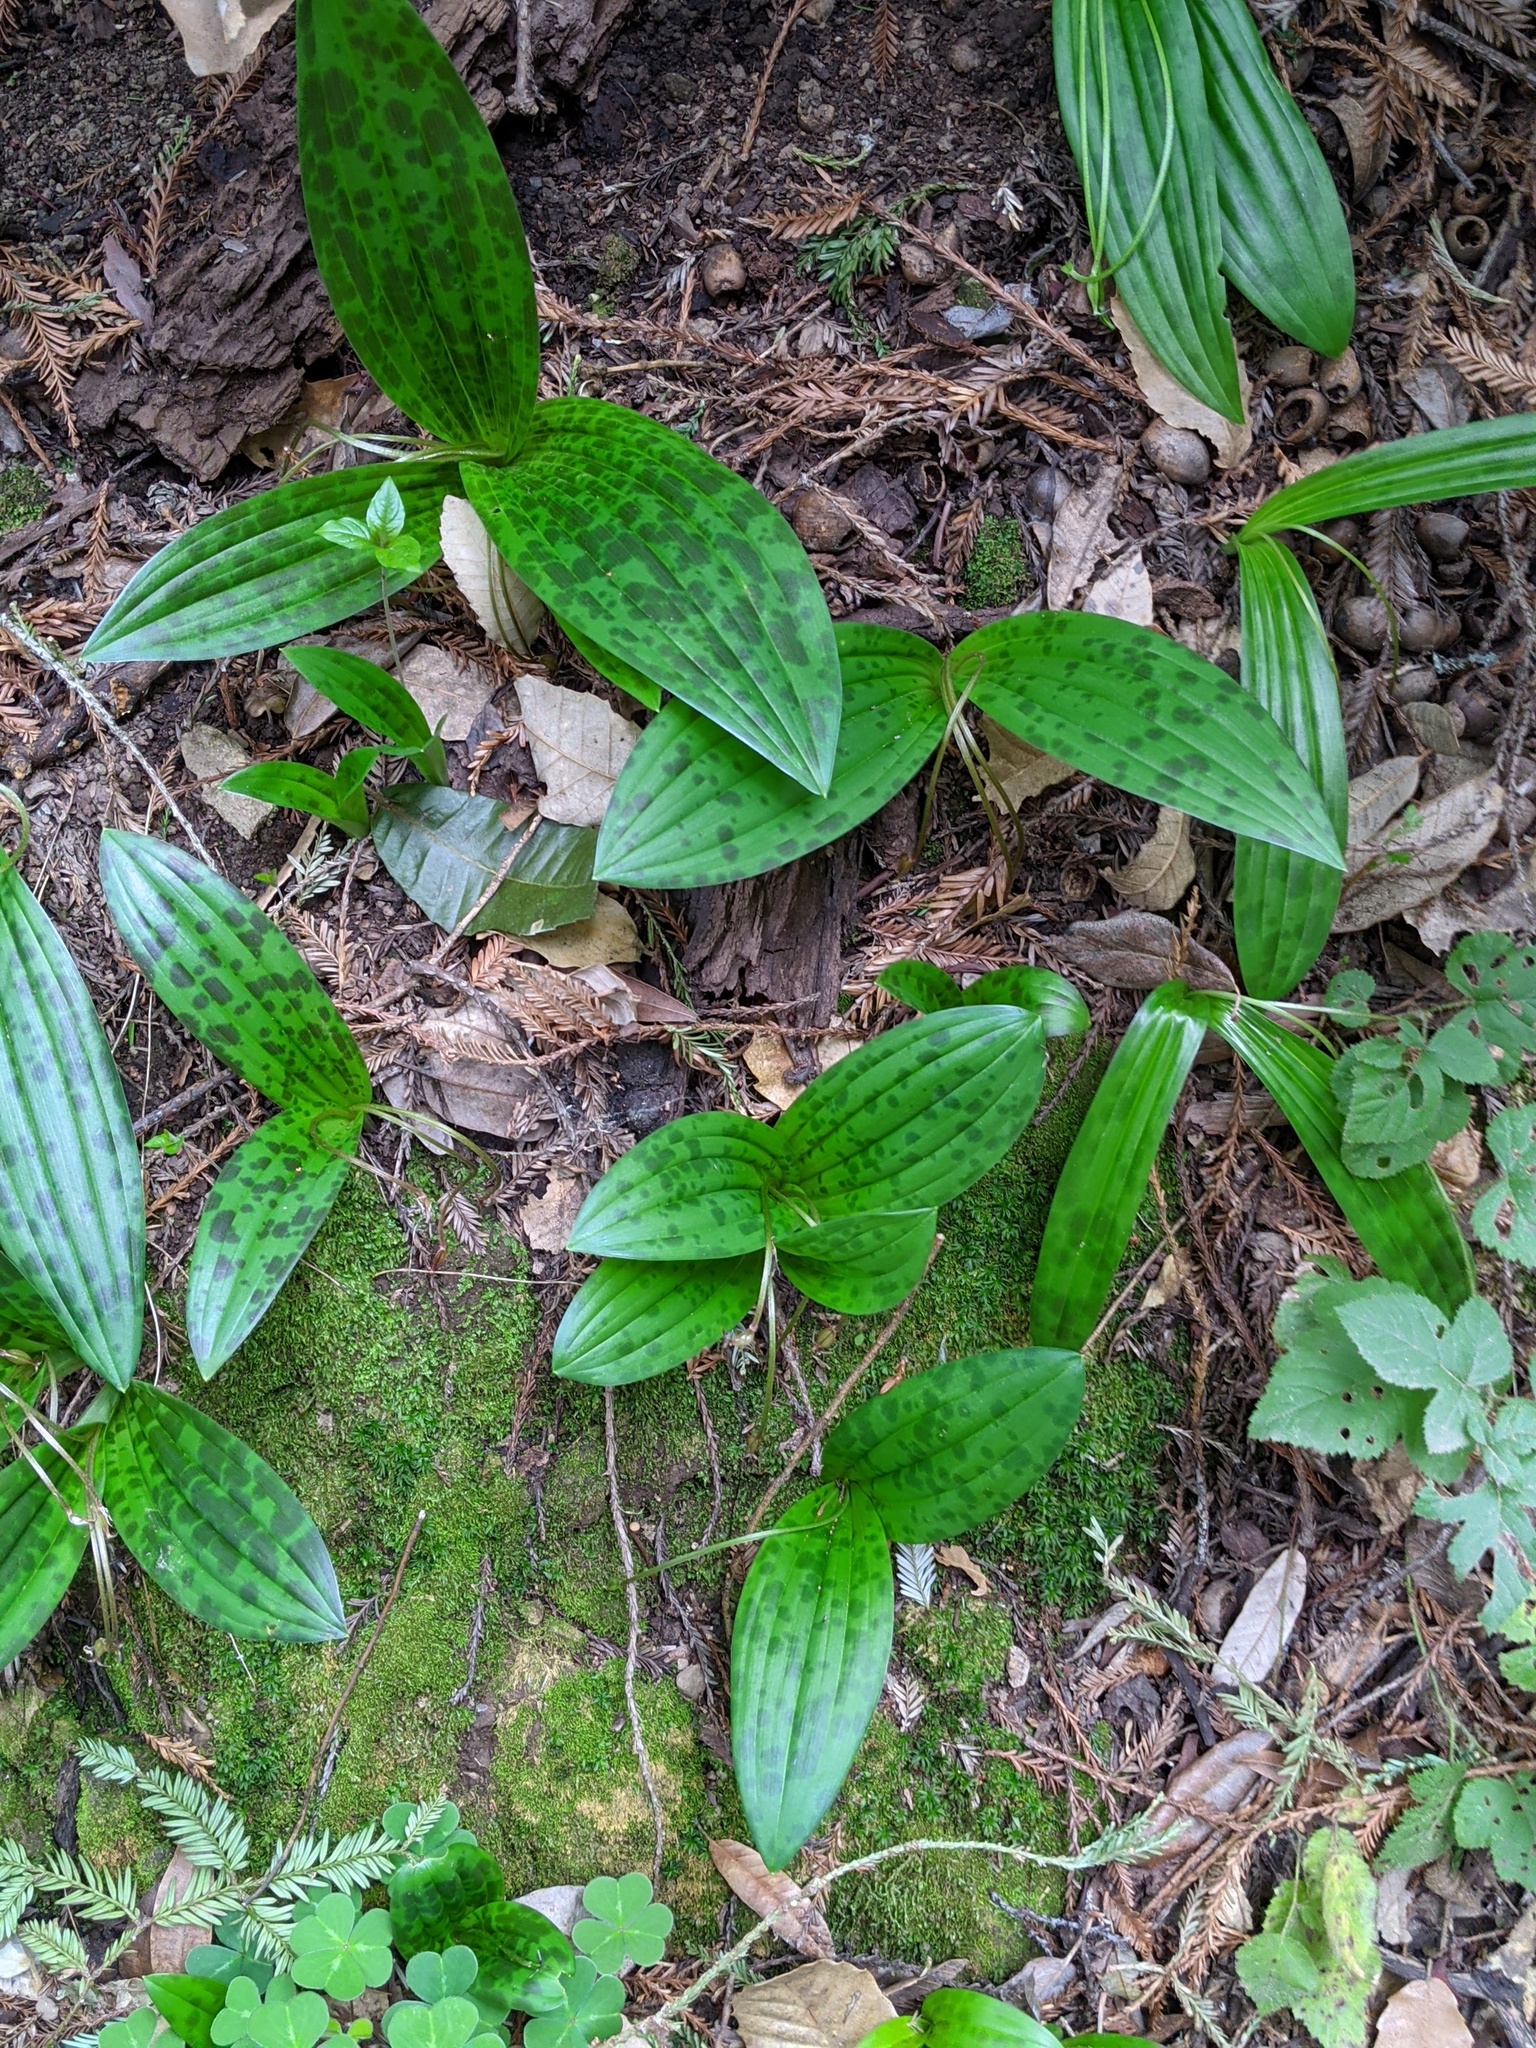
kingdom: Plantae
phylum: Tracheophyta
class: Liliopsida
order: Liliales
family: Liliaceae
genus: Scoliopus
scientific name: Scoliopus bigelovii
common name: Foetid adder's-tongue
